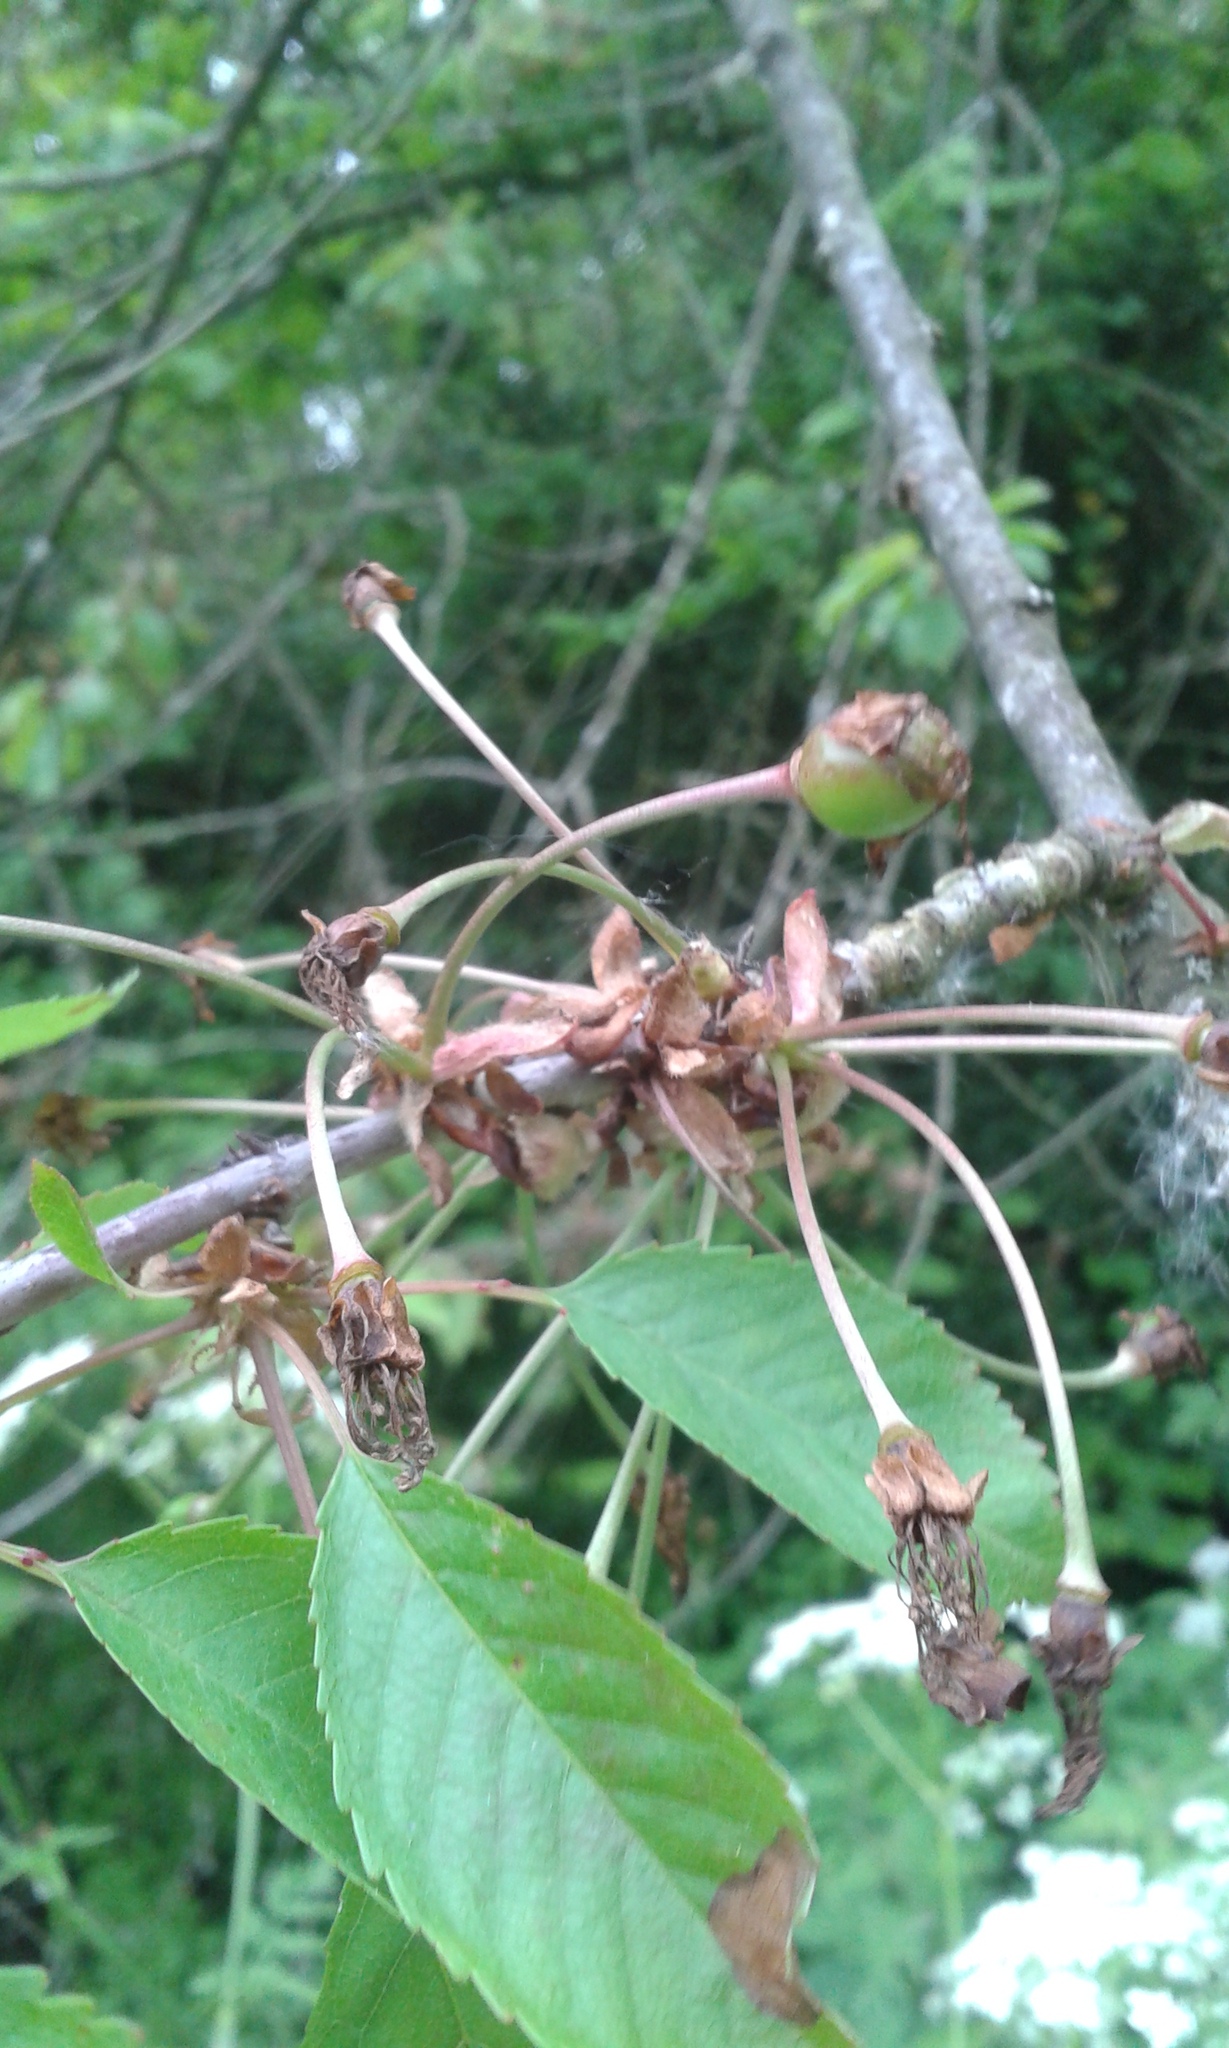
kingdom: Plantae
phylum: Tracheophyta
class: Magnoliopsida
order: Rosales
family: Rosaceae
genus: Prunus
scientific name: Prunus avium
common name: Sweet cherry
